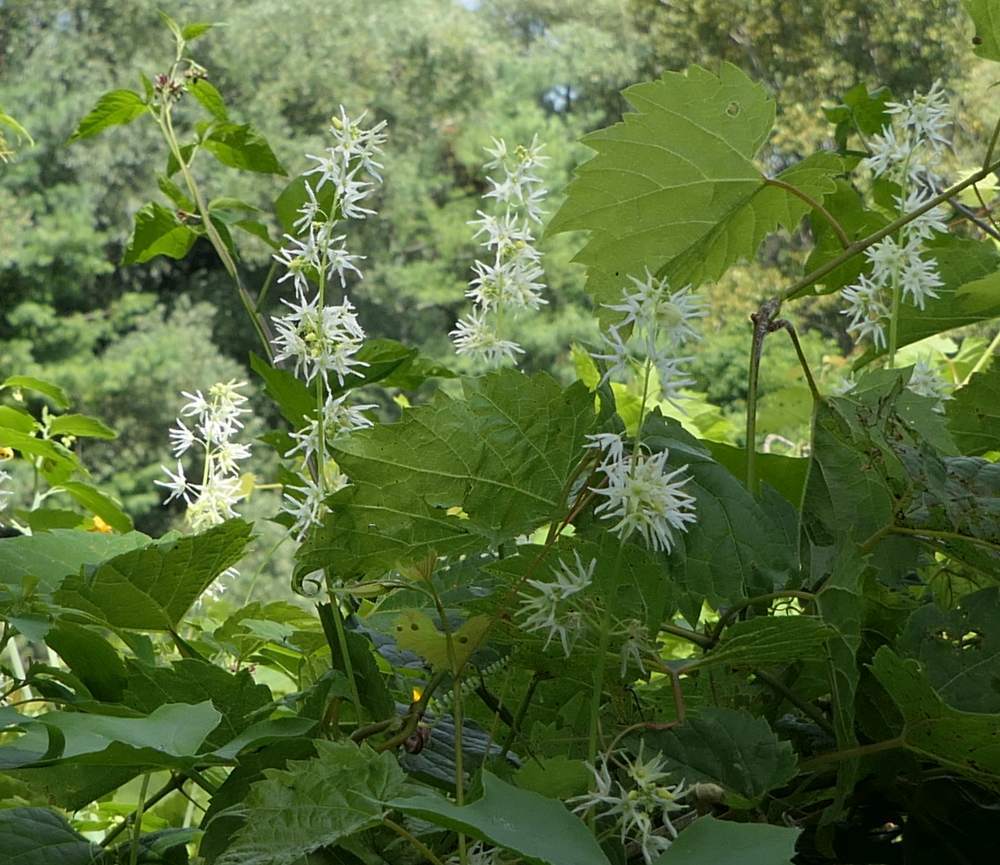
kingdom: Plantae
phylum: Tracheophyta
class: Magnoliopsida
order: Cucurbitales
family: Cucurbitaceae
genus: Echinocystis
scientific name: Echinocystis lobata
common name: Wild cucumber
